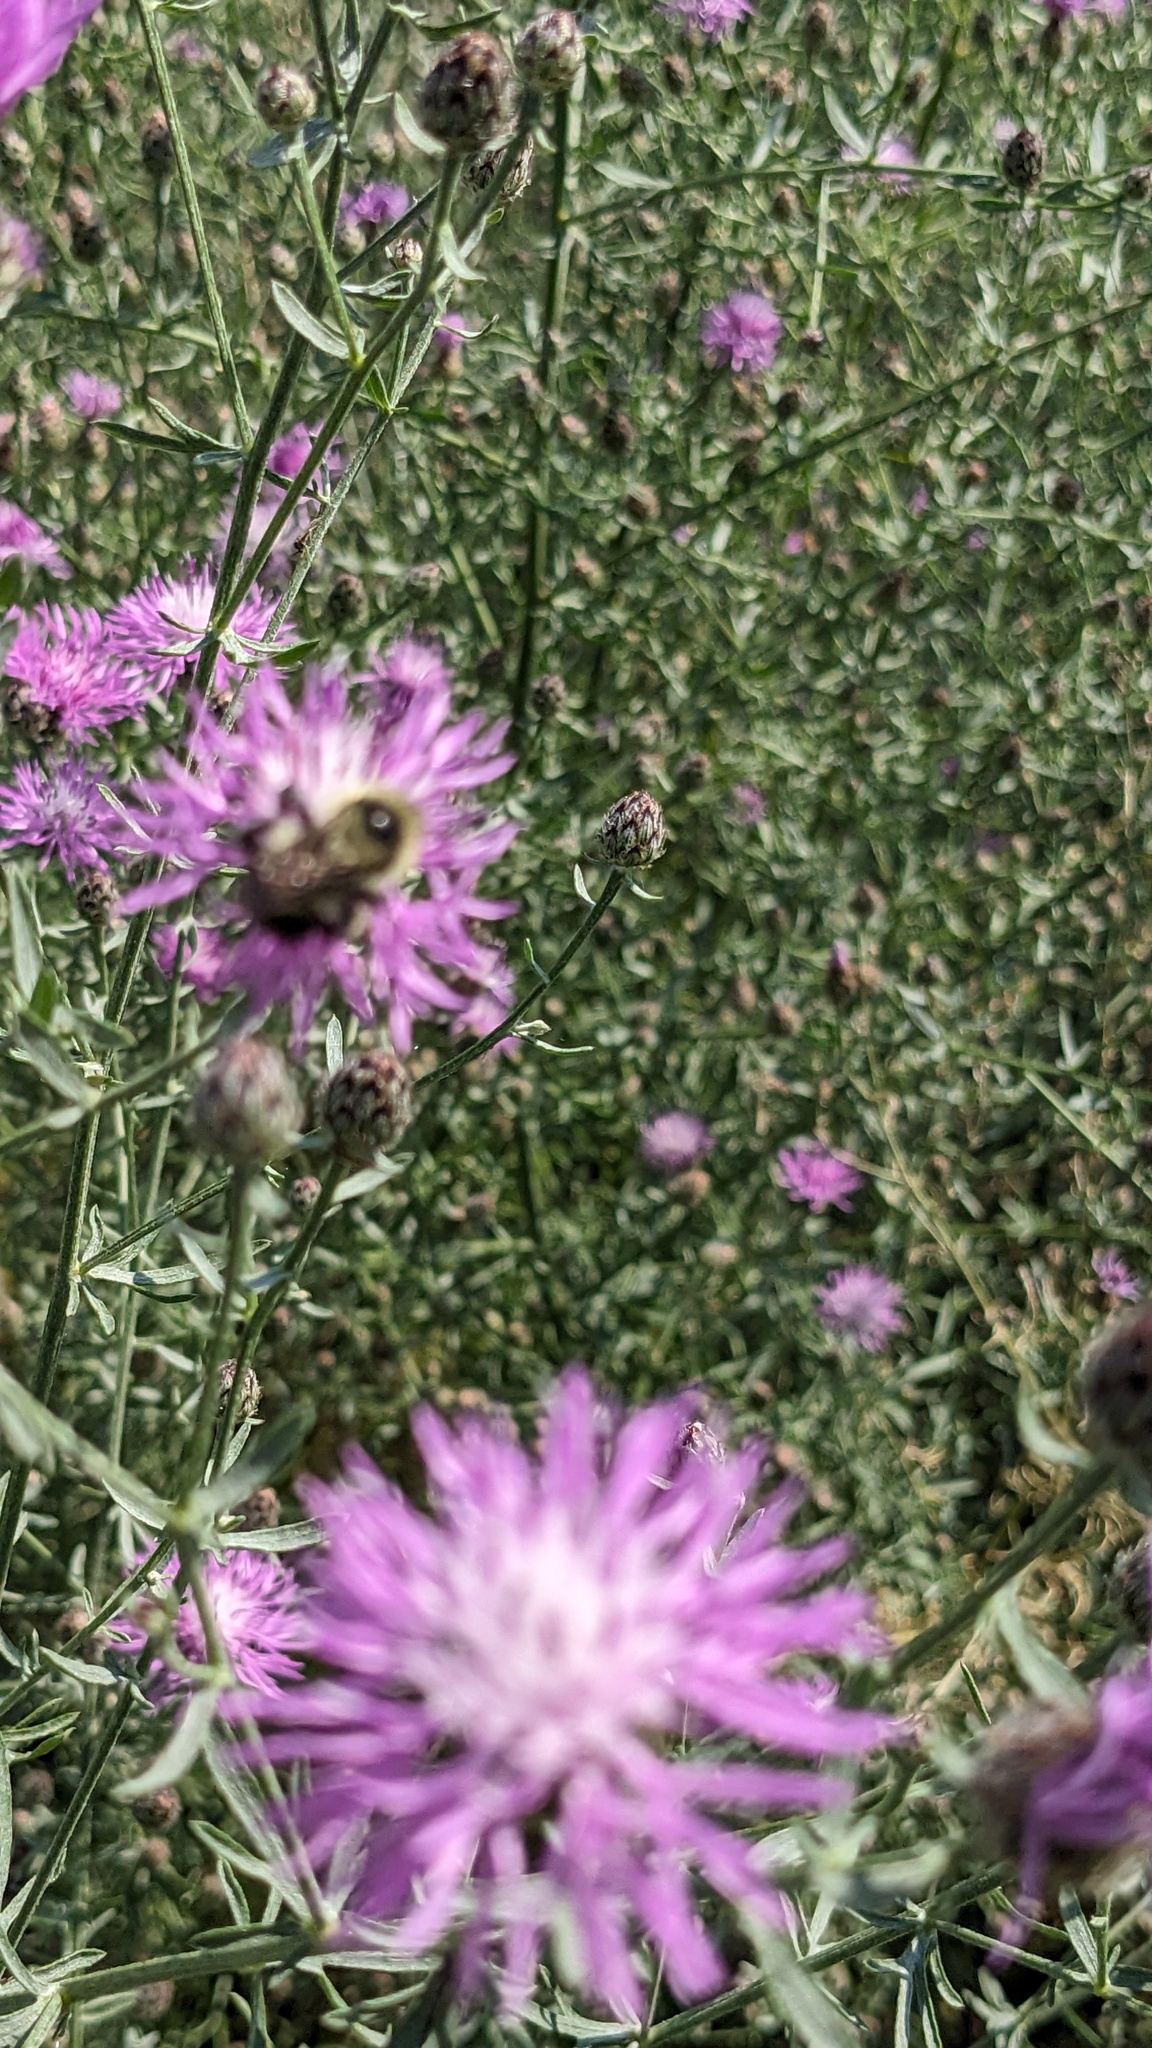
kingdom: Animalia
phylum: Arthropoda
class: Insecta
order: Hymenoptera
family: Apidae
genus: Bombus
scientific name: Bombus rufocinctus
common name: Red-belted bumble bee
